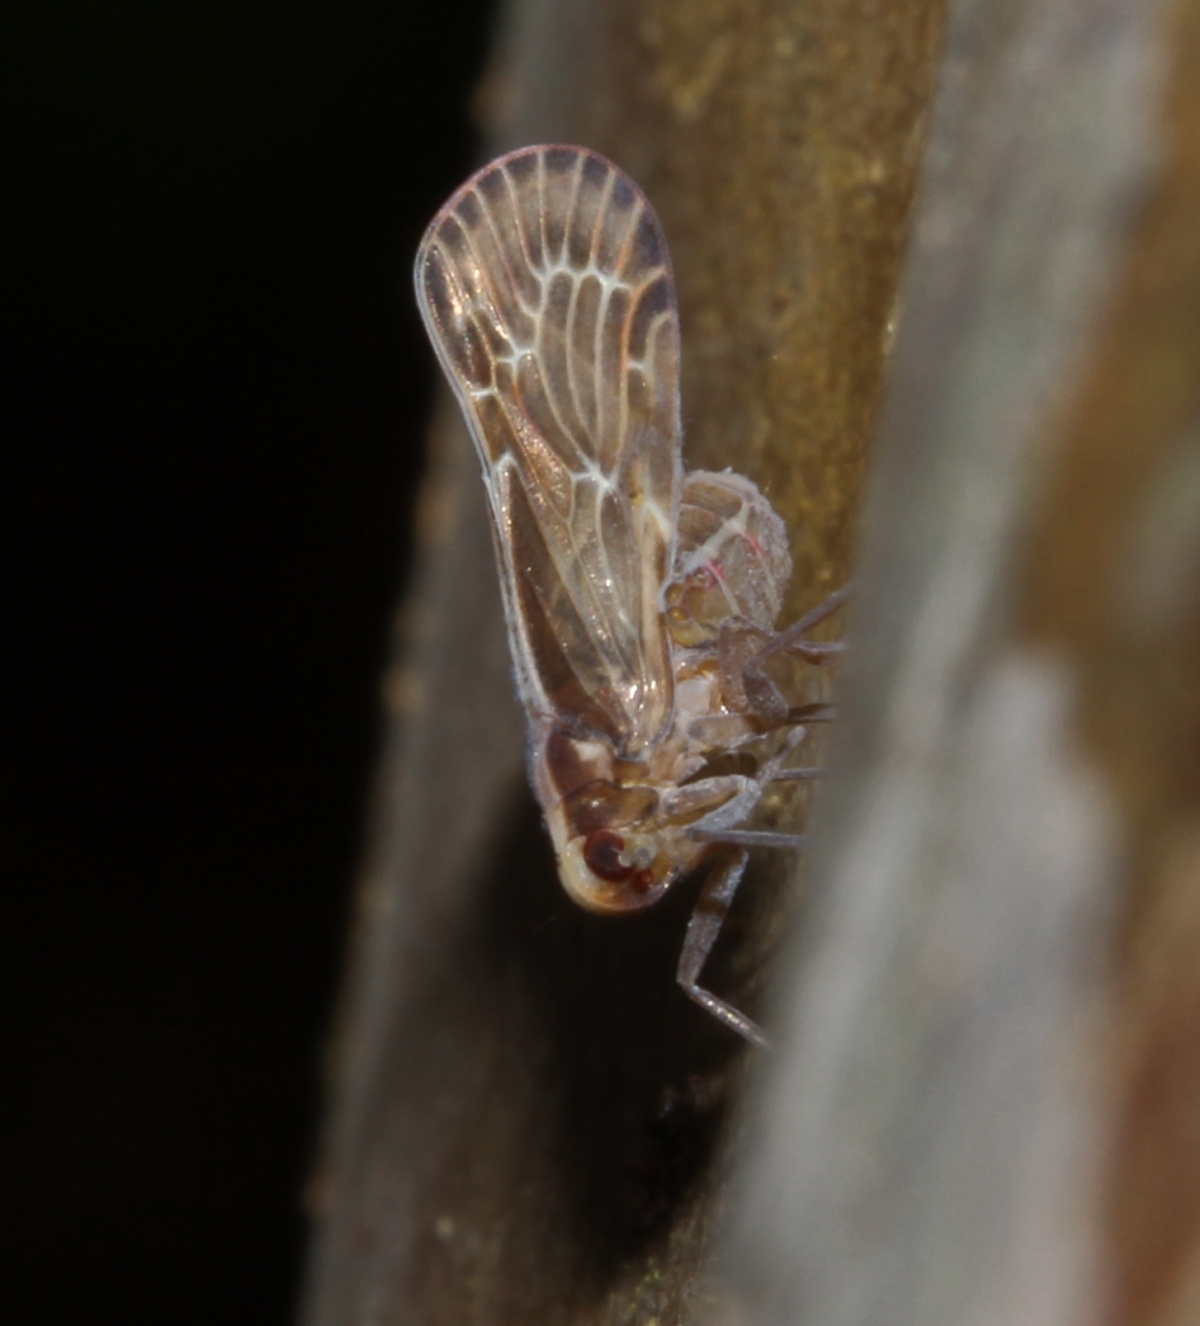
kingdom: Animalia
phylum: Arthropoda
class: Insecta
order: Hemiptera
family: Achilixiidae
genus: Bebaiotes
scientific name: Bebaiotes
